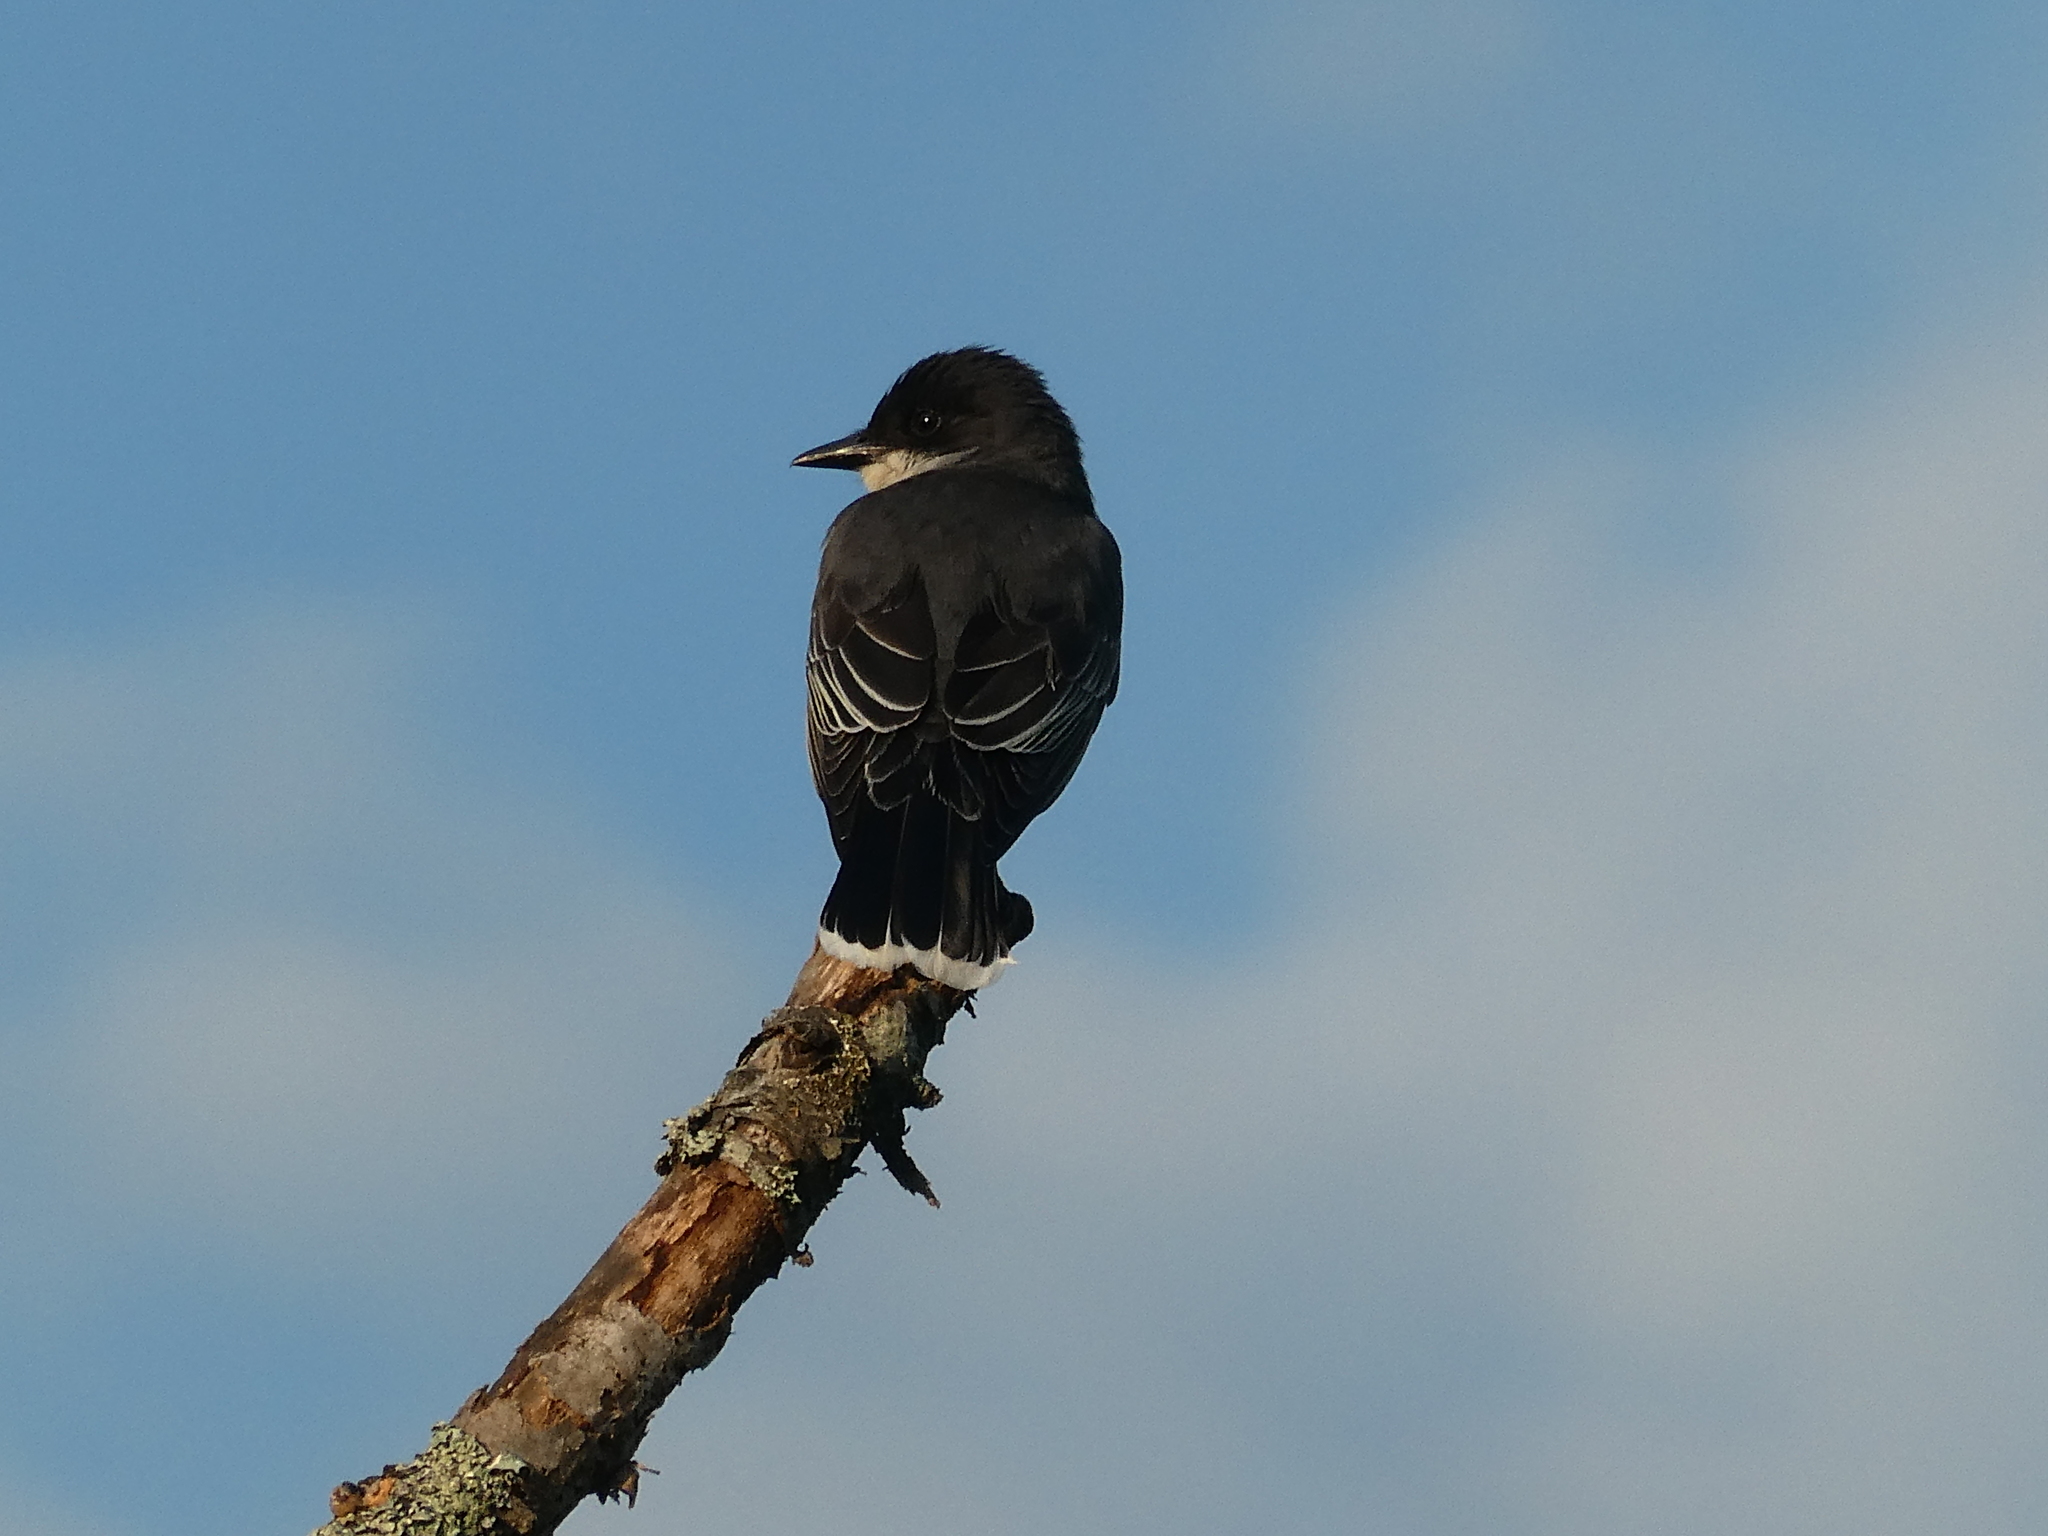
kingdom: Animalia
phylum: Chordata
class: Aves
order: Passeriformes
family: Tyrannidae
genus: Tyrannus
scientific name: Tyrannus tyrannus
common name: Eastern kingbird
